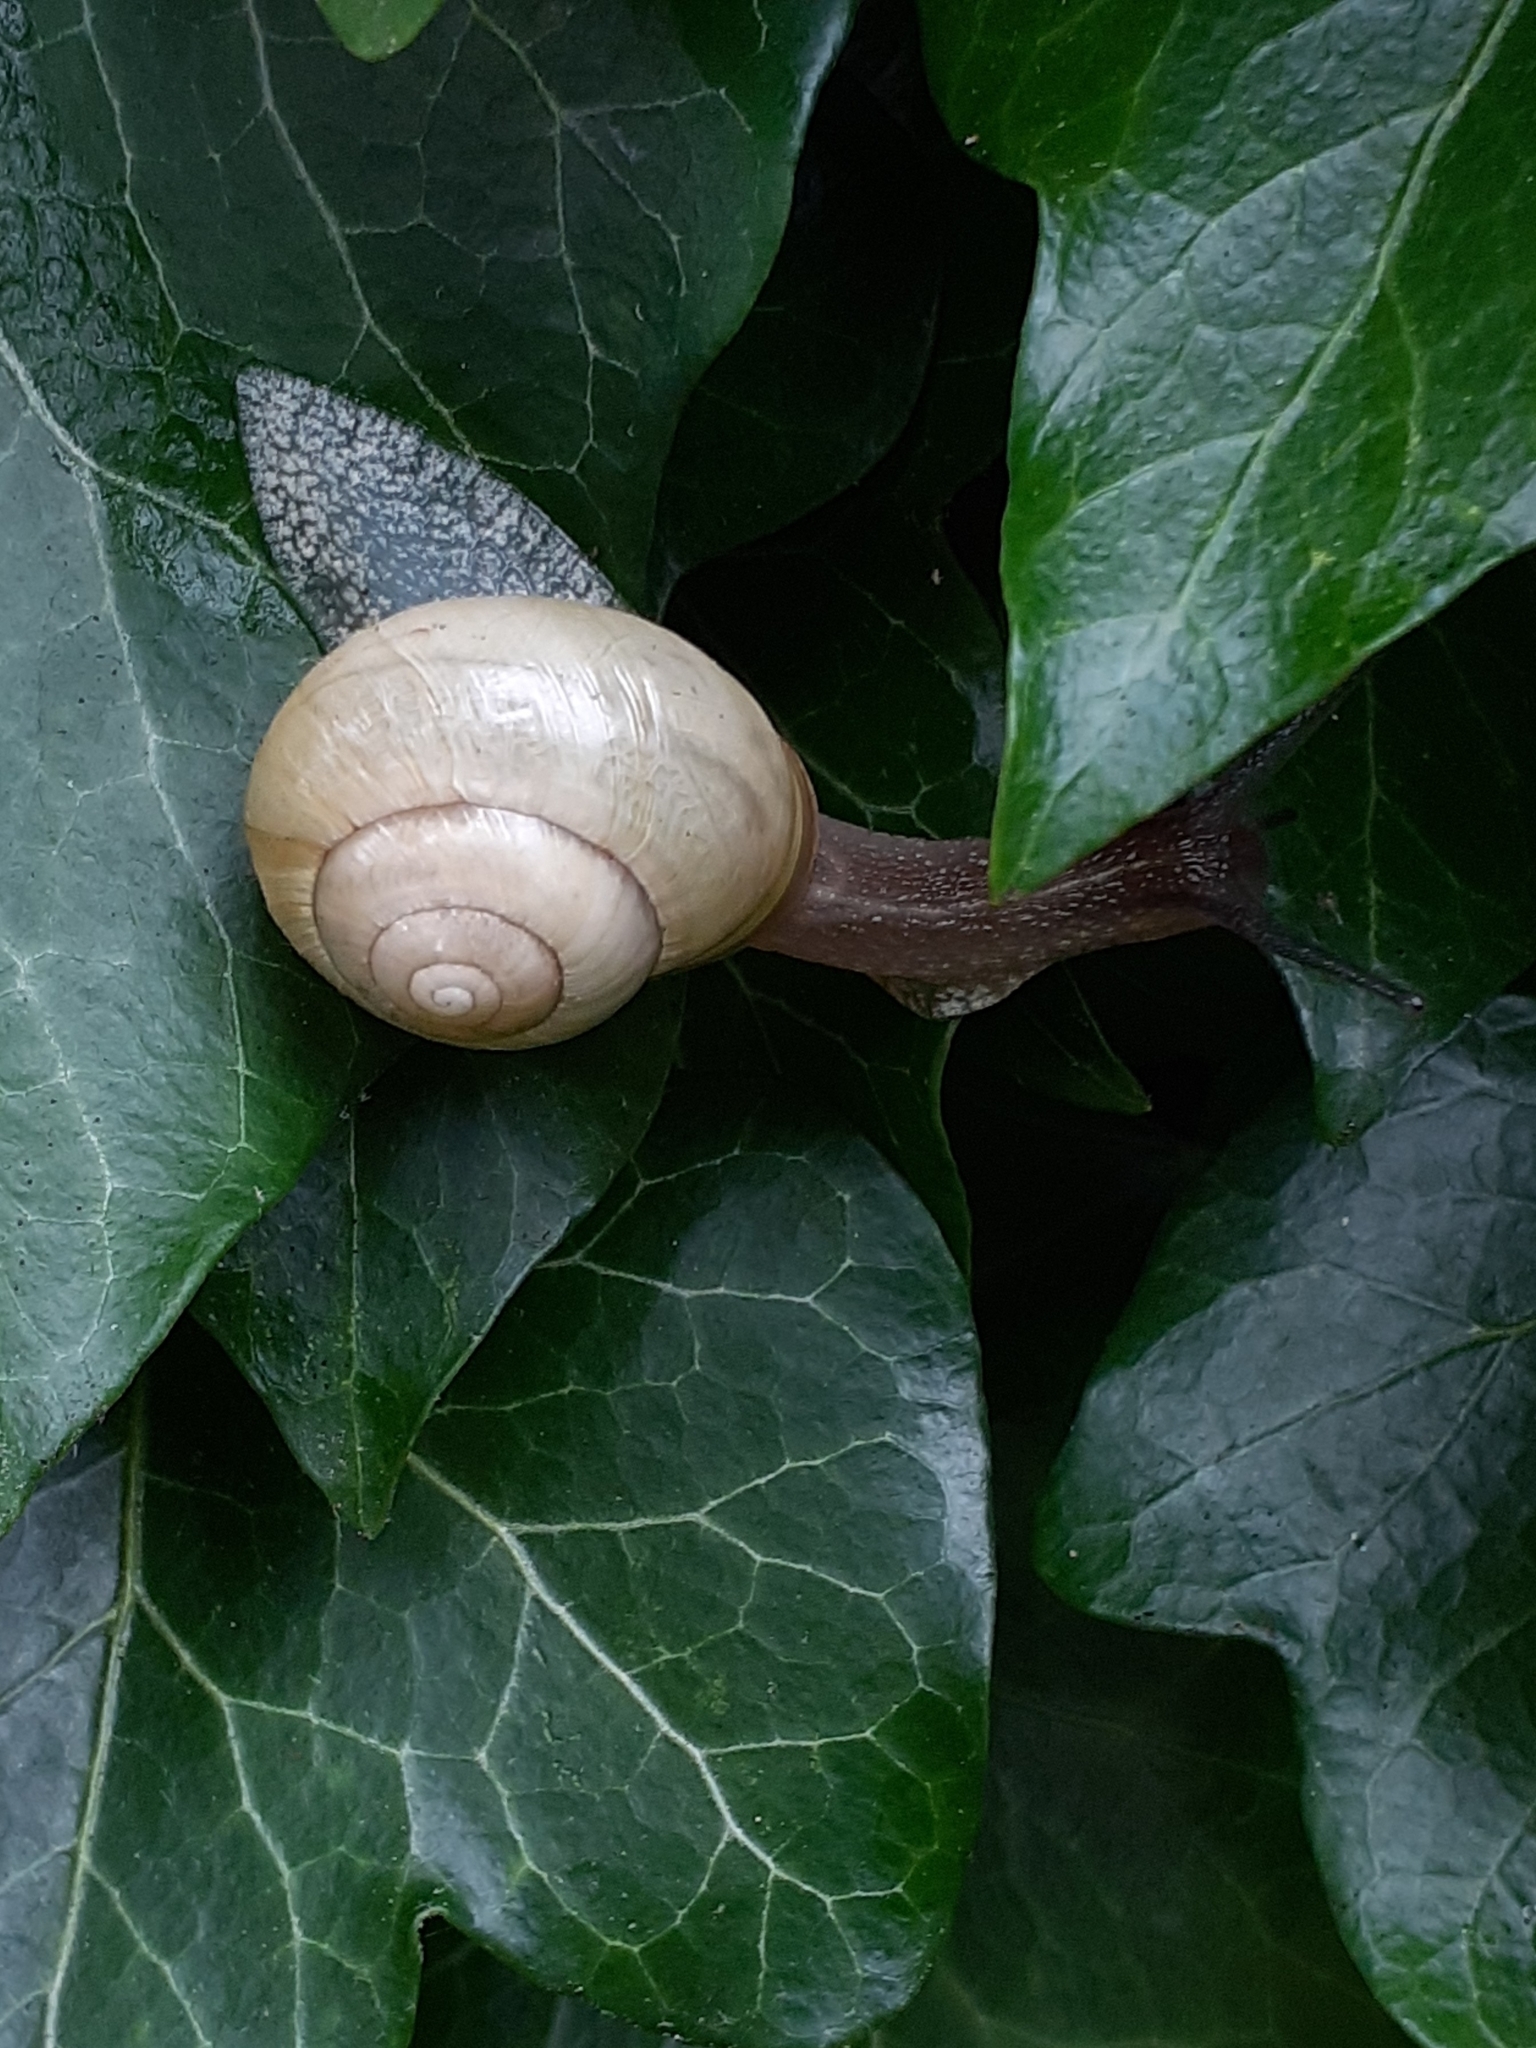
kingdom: Animalia
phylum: Mollusca
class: Gastropoda
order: Stylommatophora
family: Helicidae
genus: Cepaea
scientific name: Cepaea nemoralis
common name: Grovesnail
